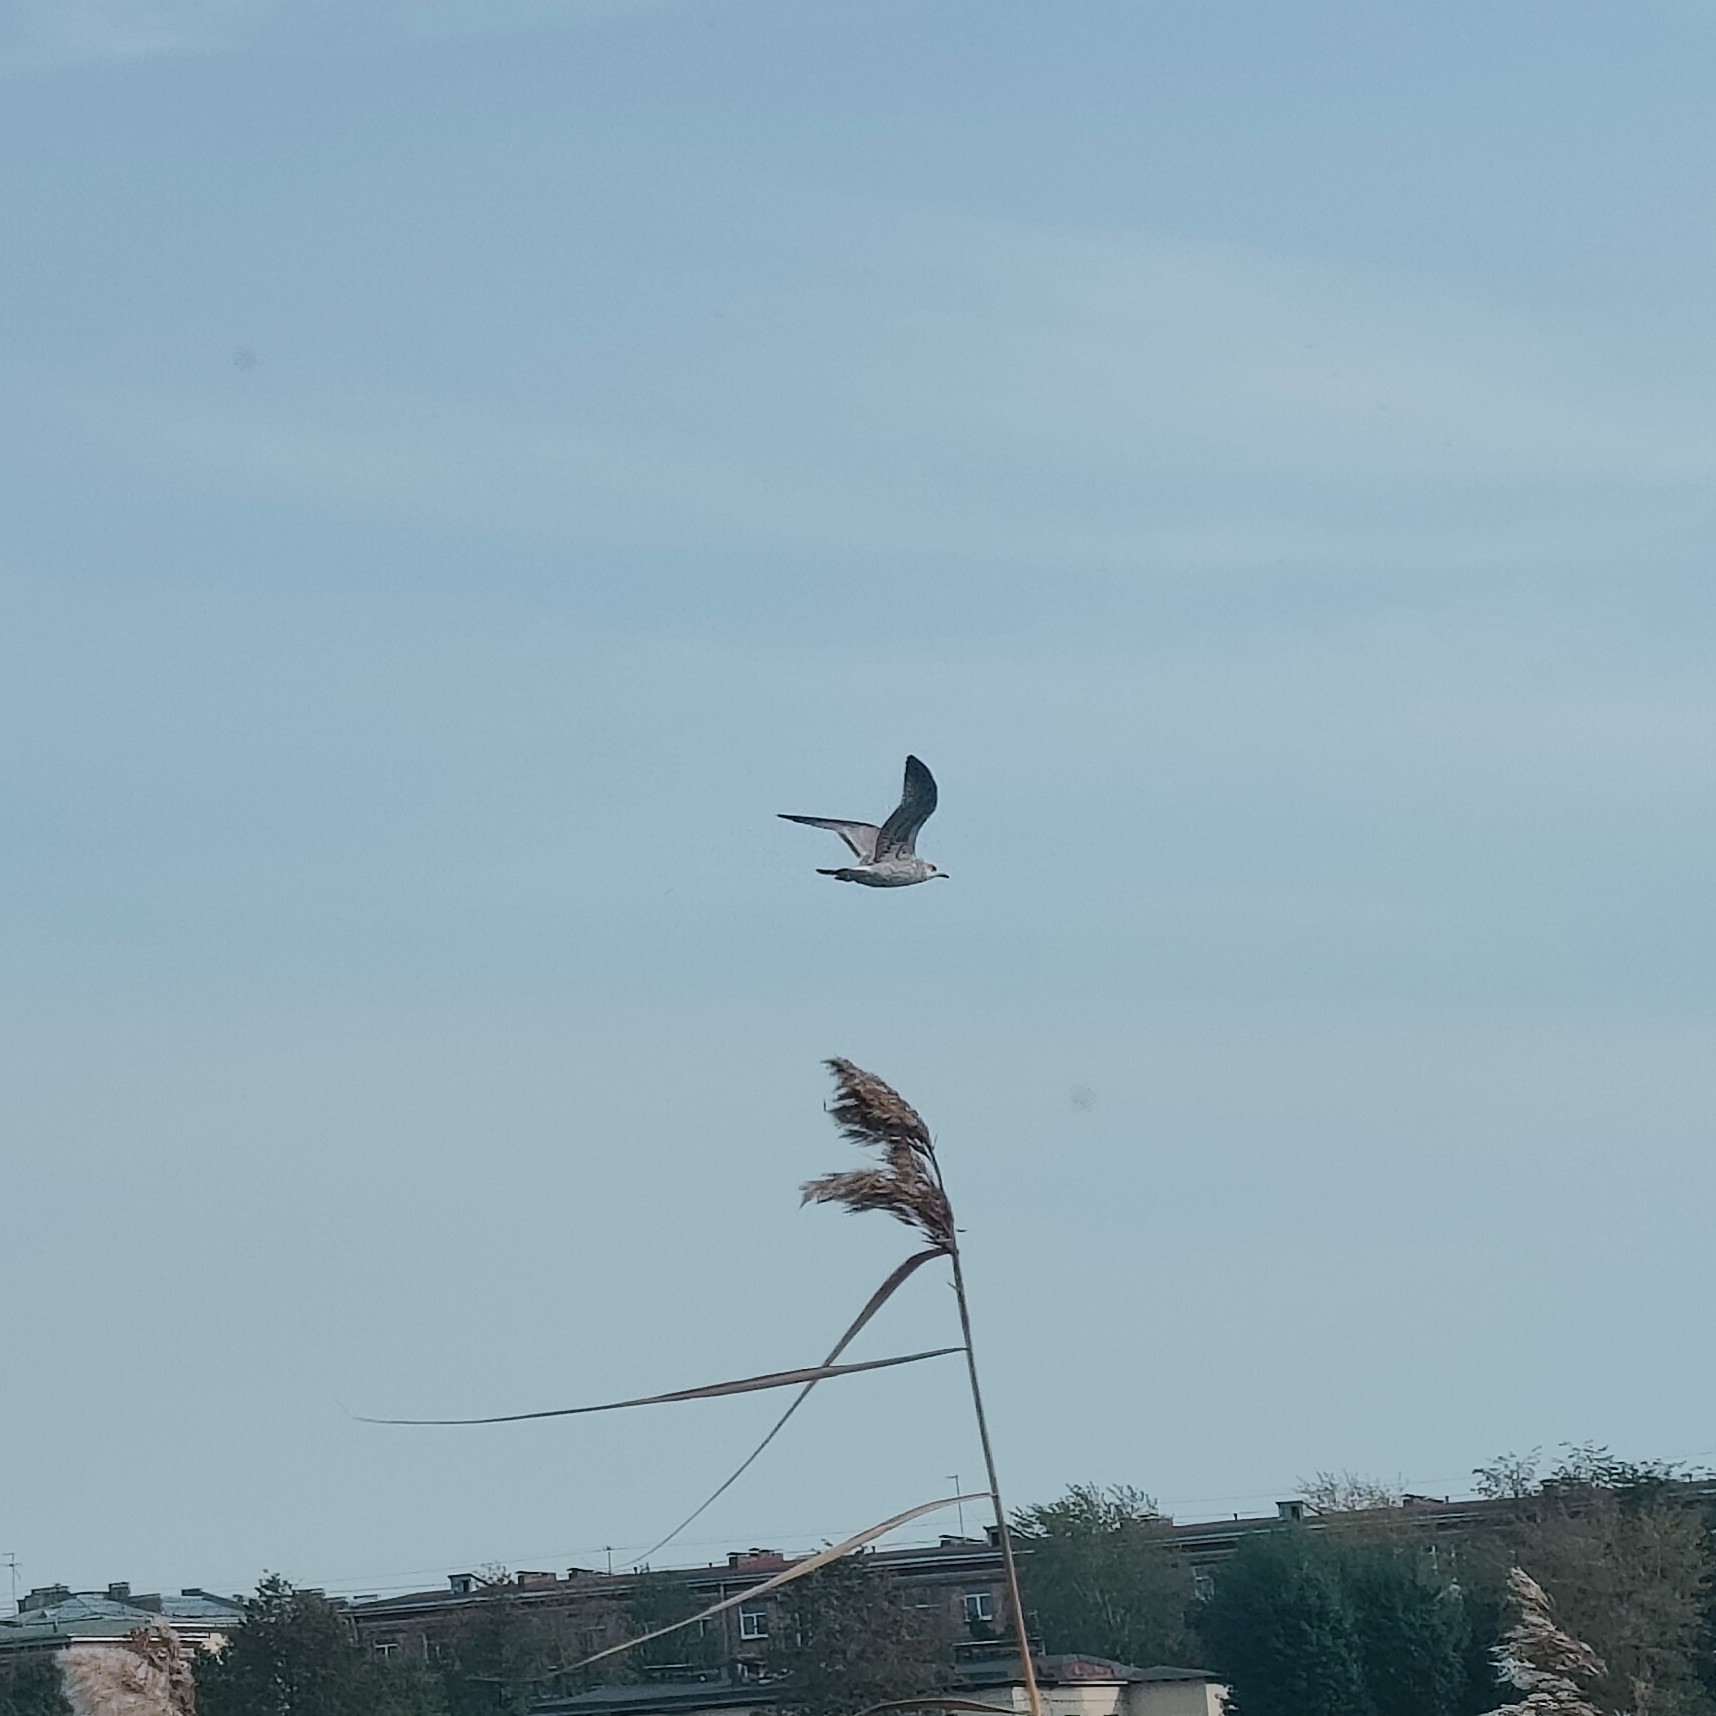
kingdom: Animalia
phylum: Chordata
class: Aves
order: Charadriiformes
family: Laridae
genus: Larus
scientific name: Larus canus
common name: Mew gull
